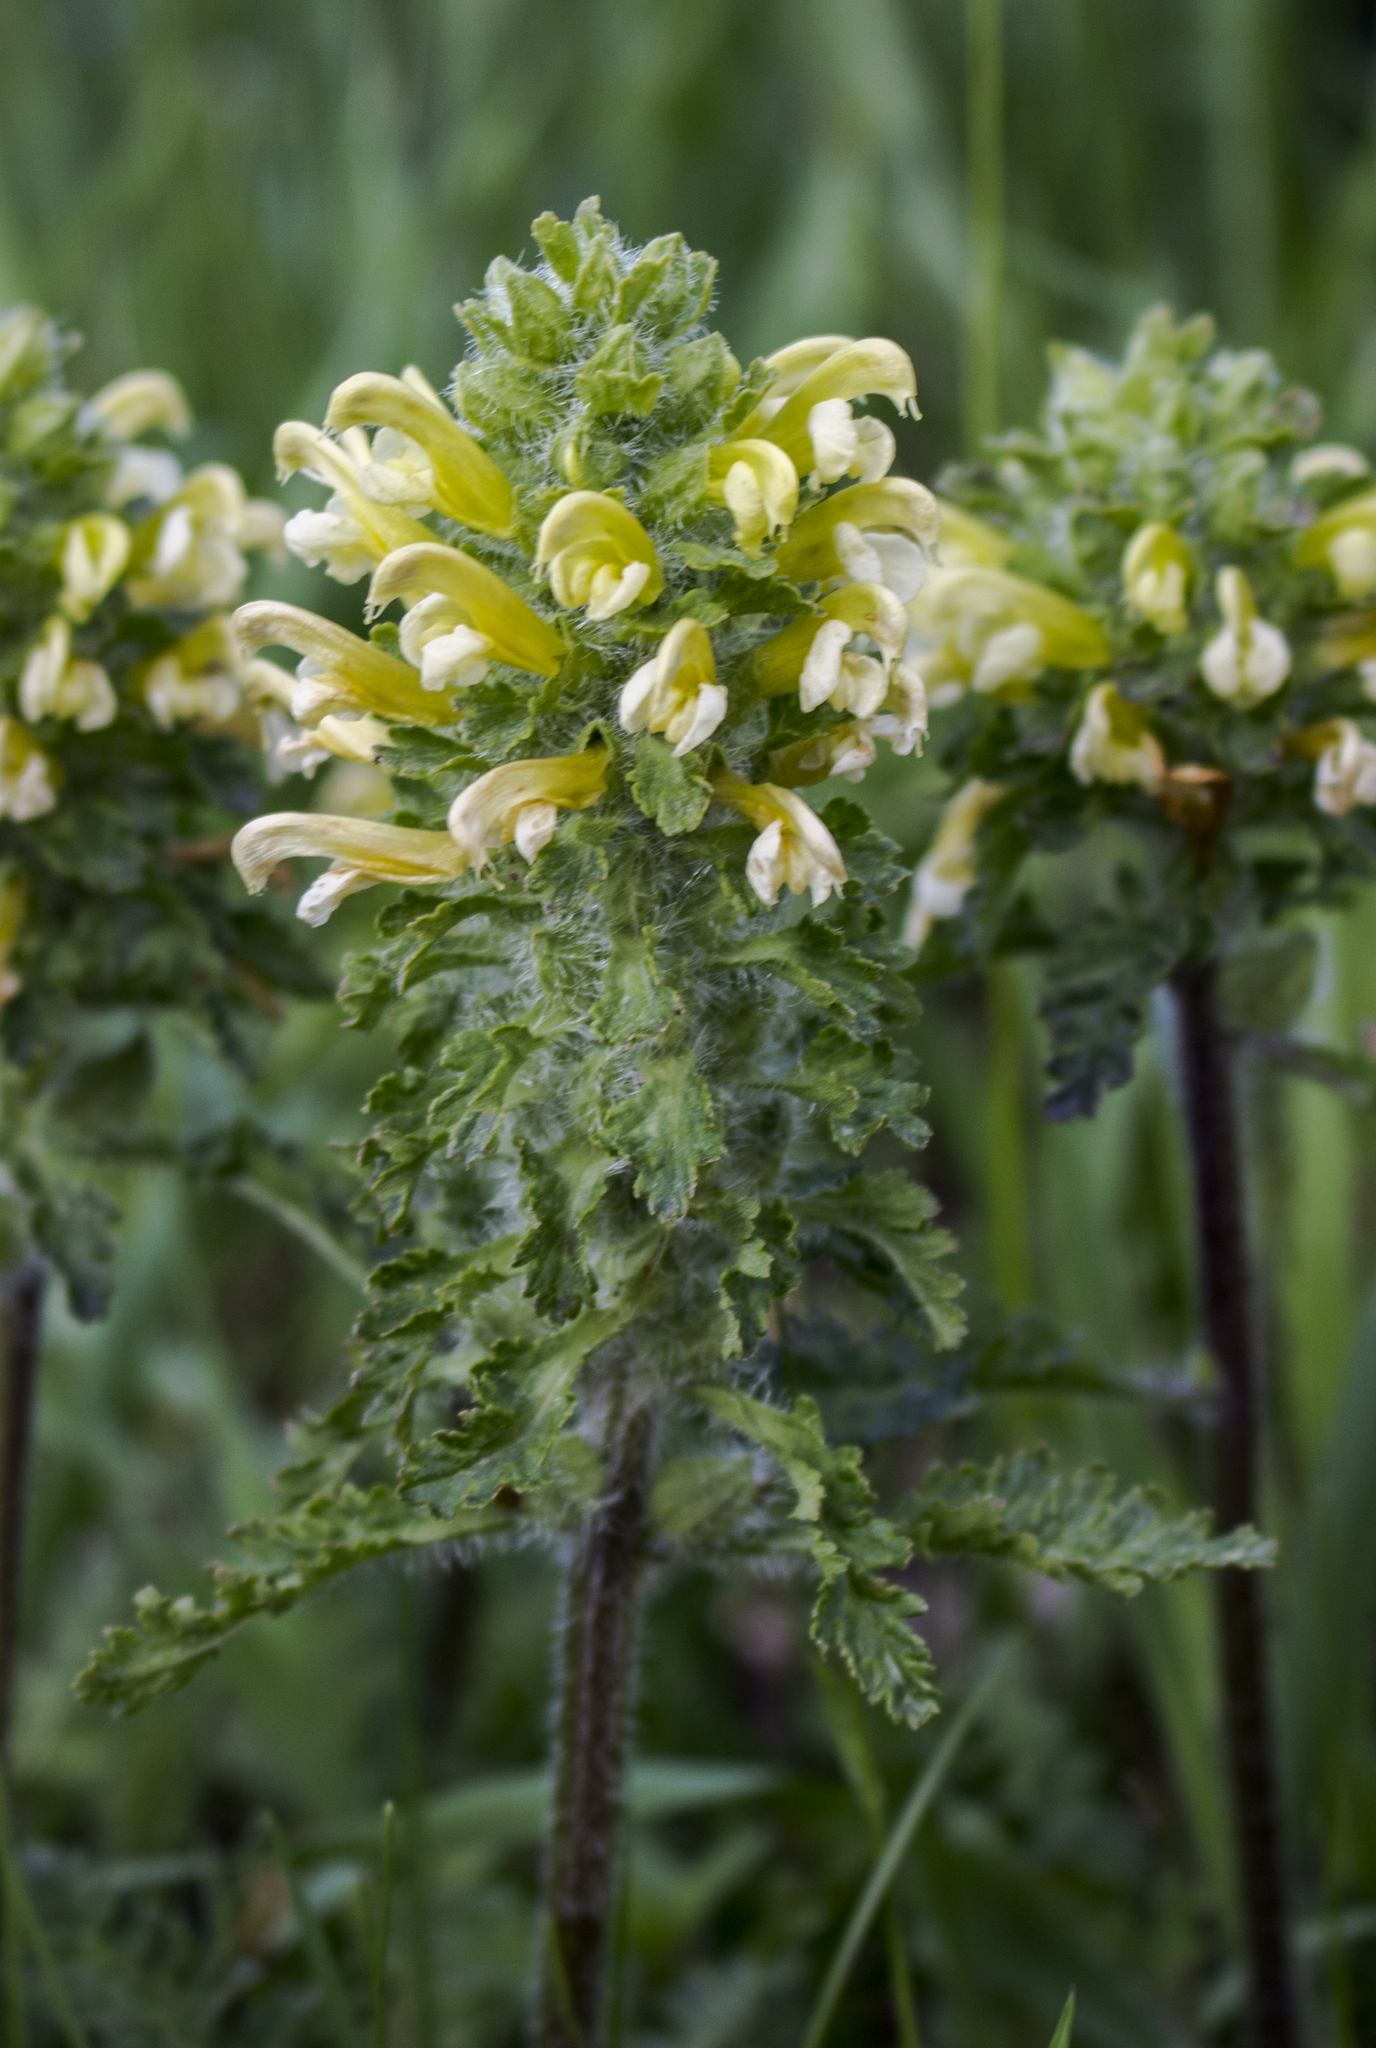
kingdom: Plantae
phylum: Tracheophyta
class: Magnoliopsida
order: Lamiales
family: Orobanchaceae
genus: Pedicularis
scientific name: Pedicularis canadensis
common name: Early lousewort
